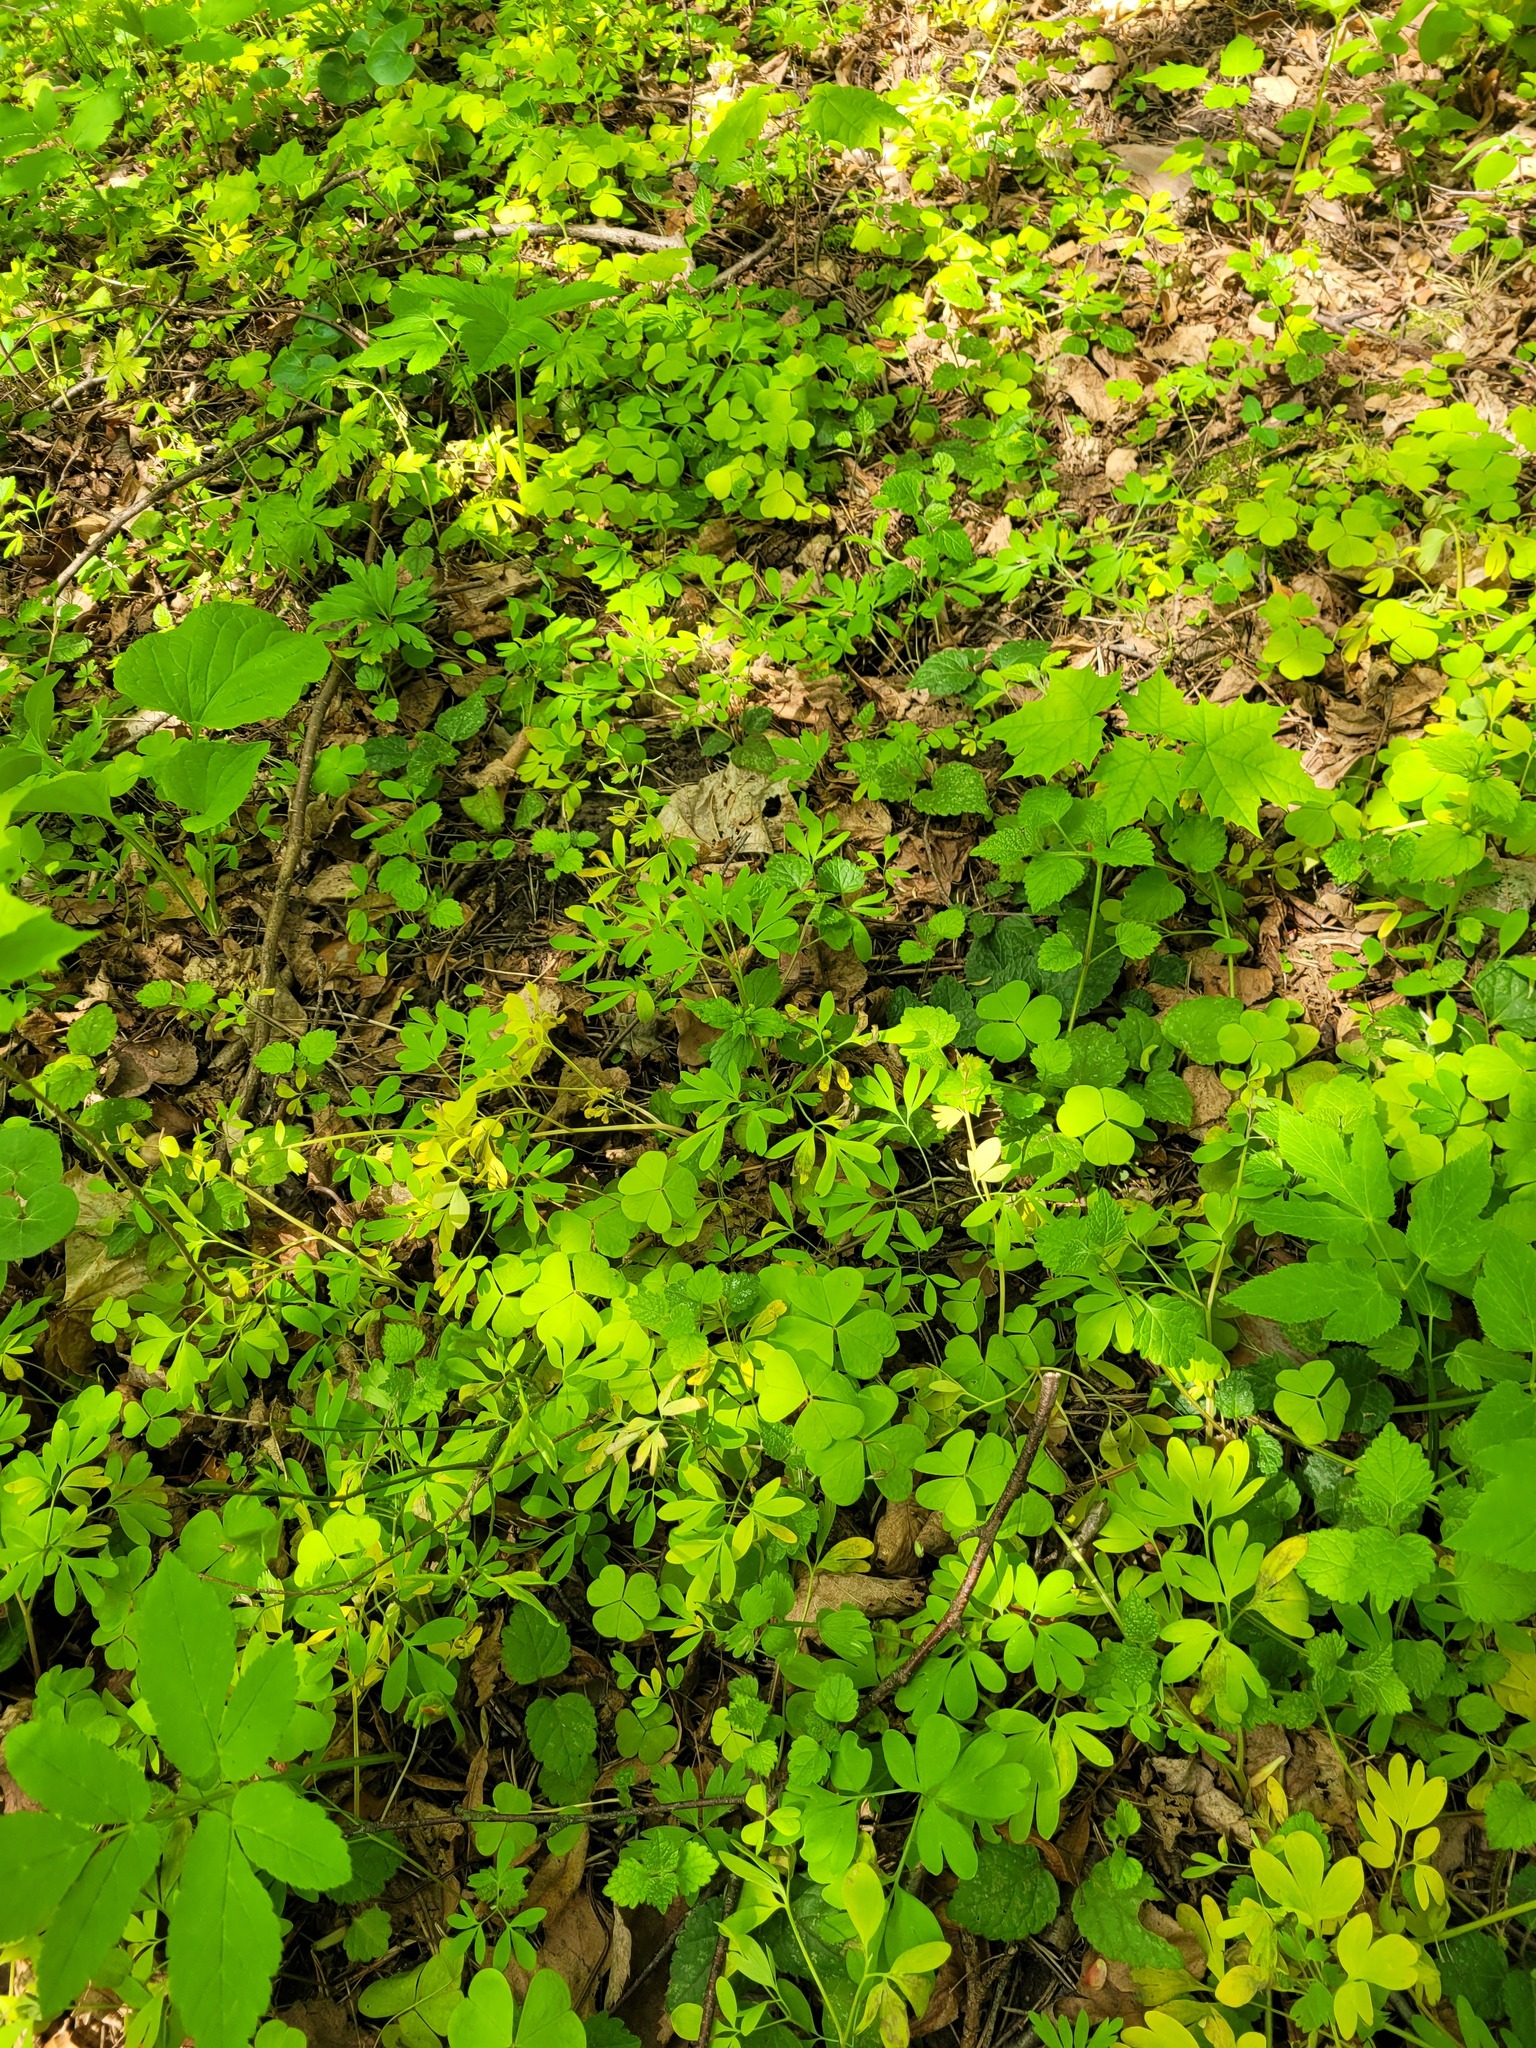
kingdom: Plantae
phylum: Tracheophyta
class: Magnoliopsida
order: Ranunculales
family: Papaveraceae
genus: Corydalis
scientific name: Corydalis solida
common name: Bird-in-a-bush
